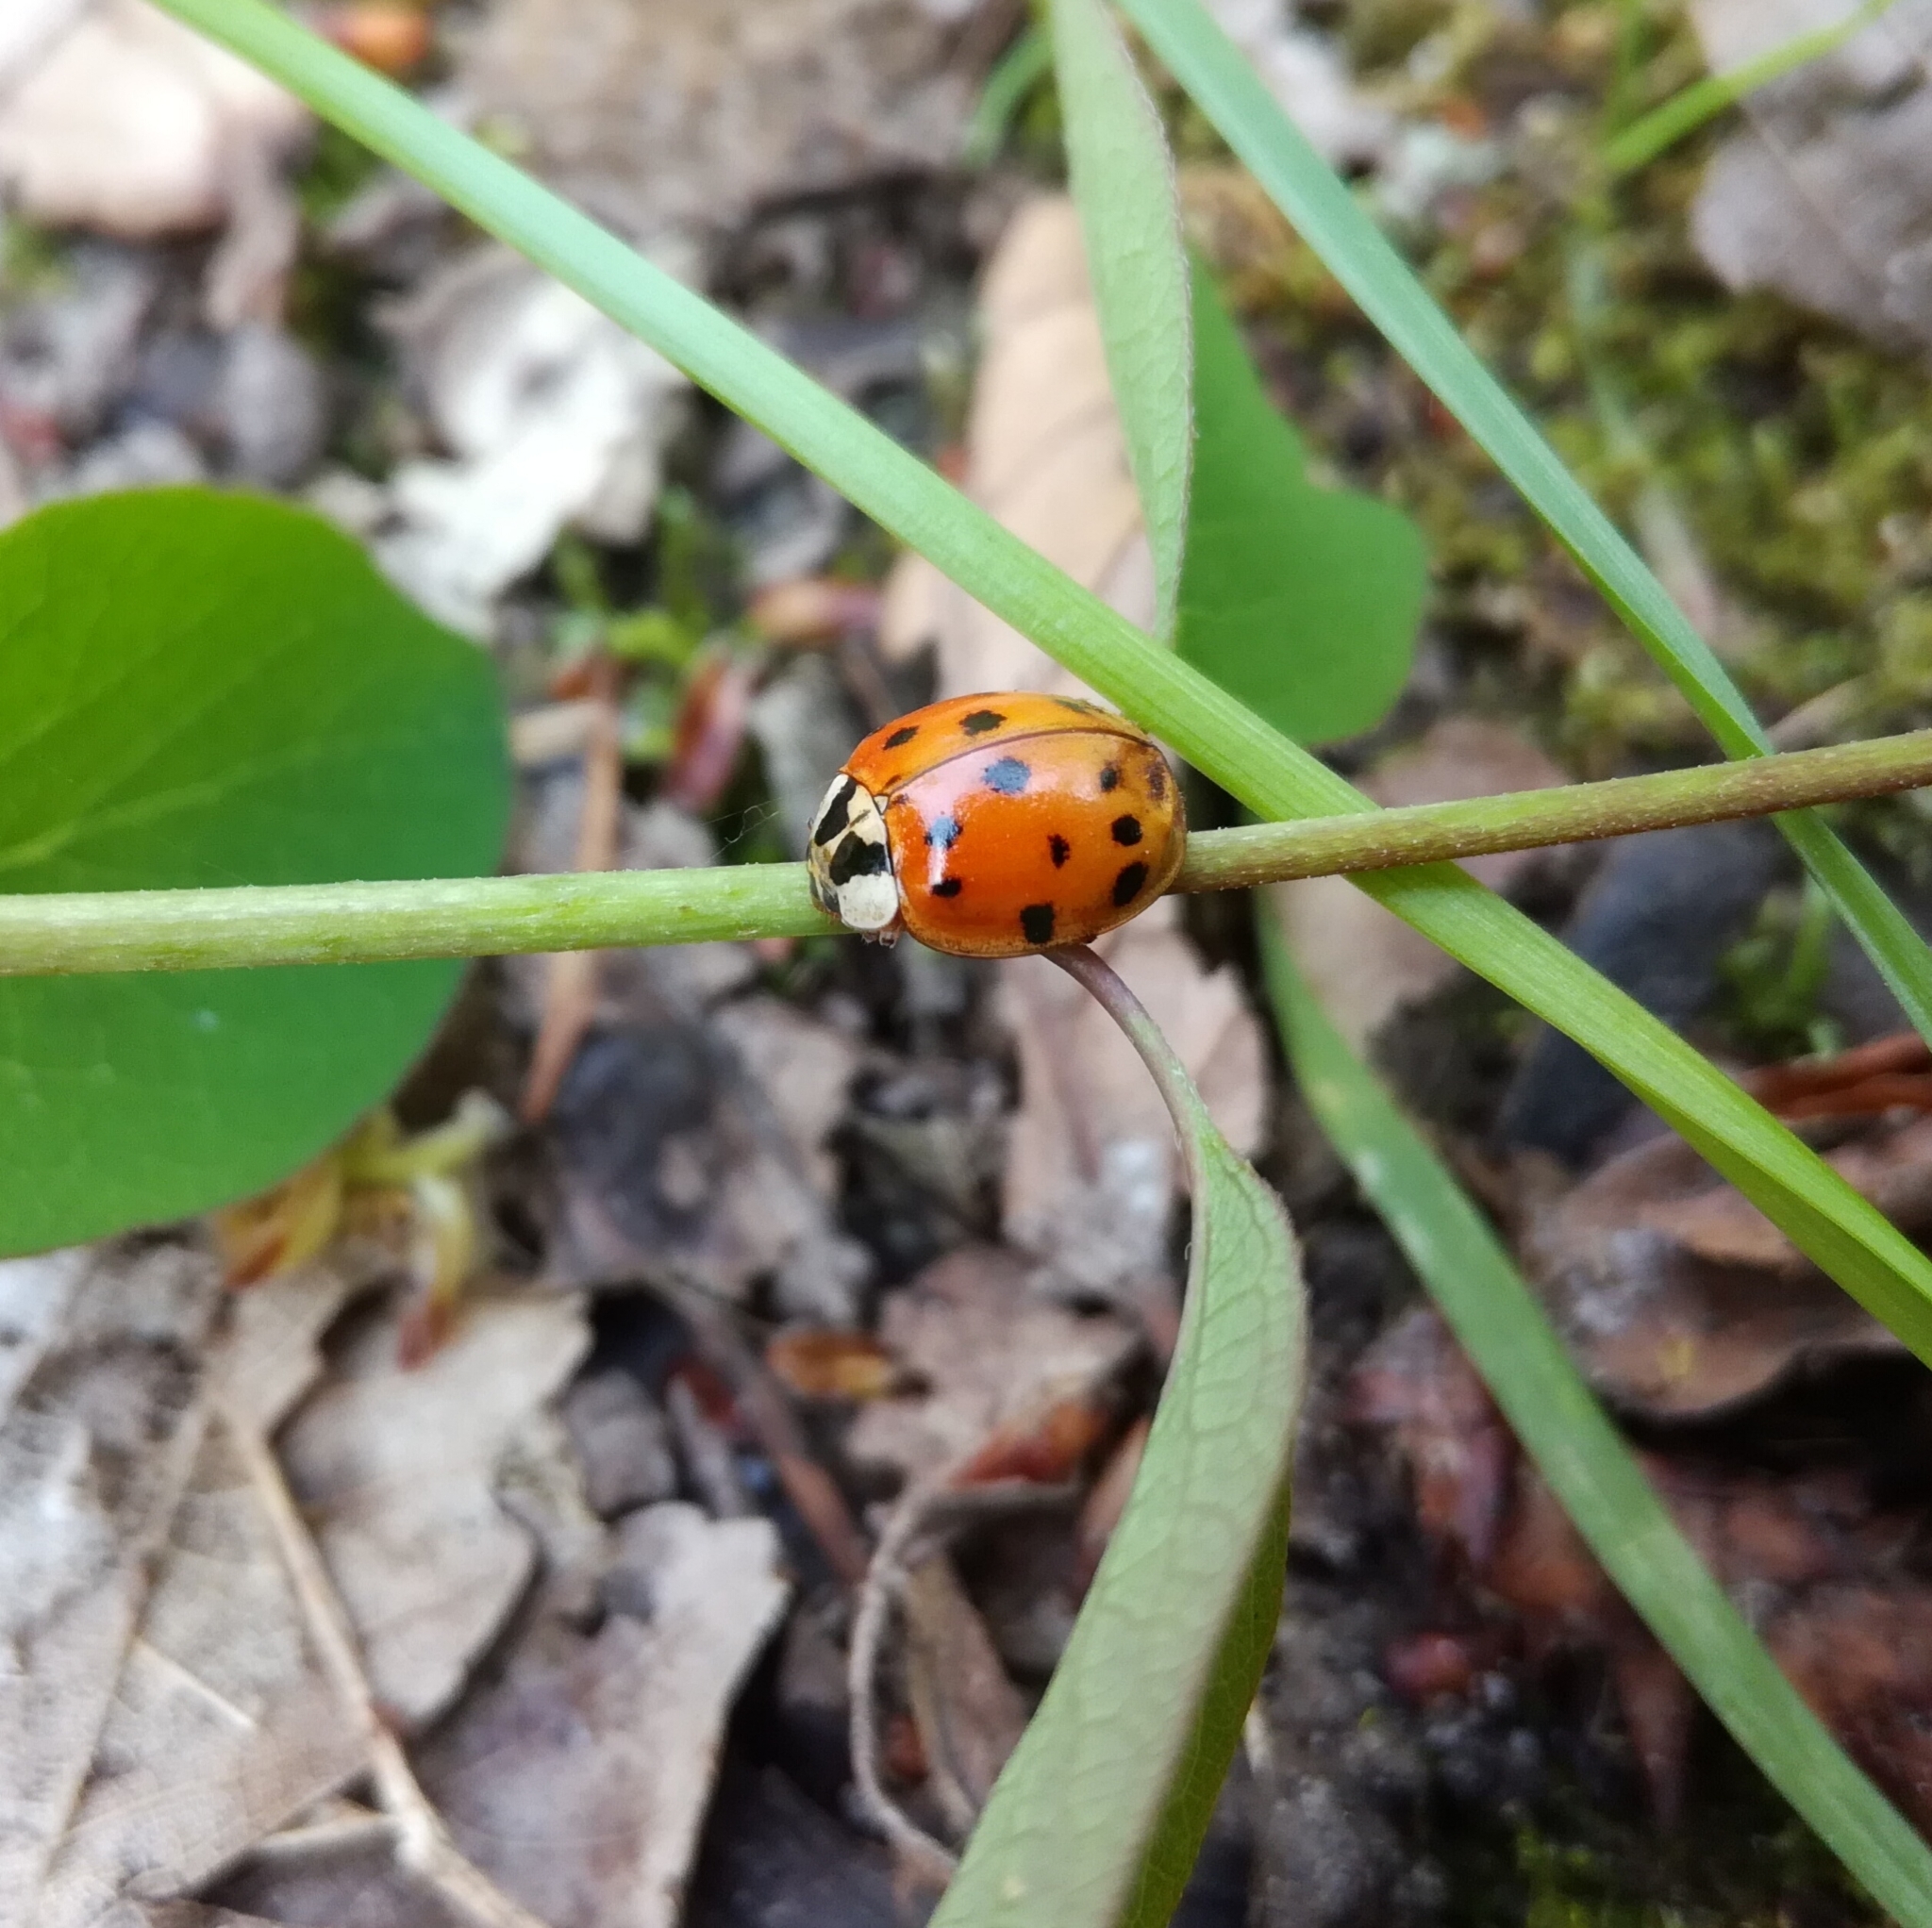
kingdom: Animalia
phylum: Arthropoda
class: Insecta
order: Coleoptera
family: Coccinellidae
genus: Harmonia
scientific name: Harmonia axyridis
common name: Harlequin ladybird
